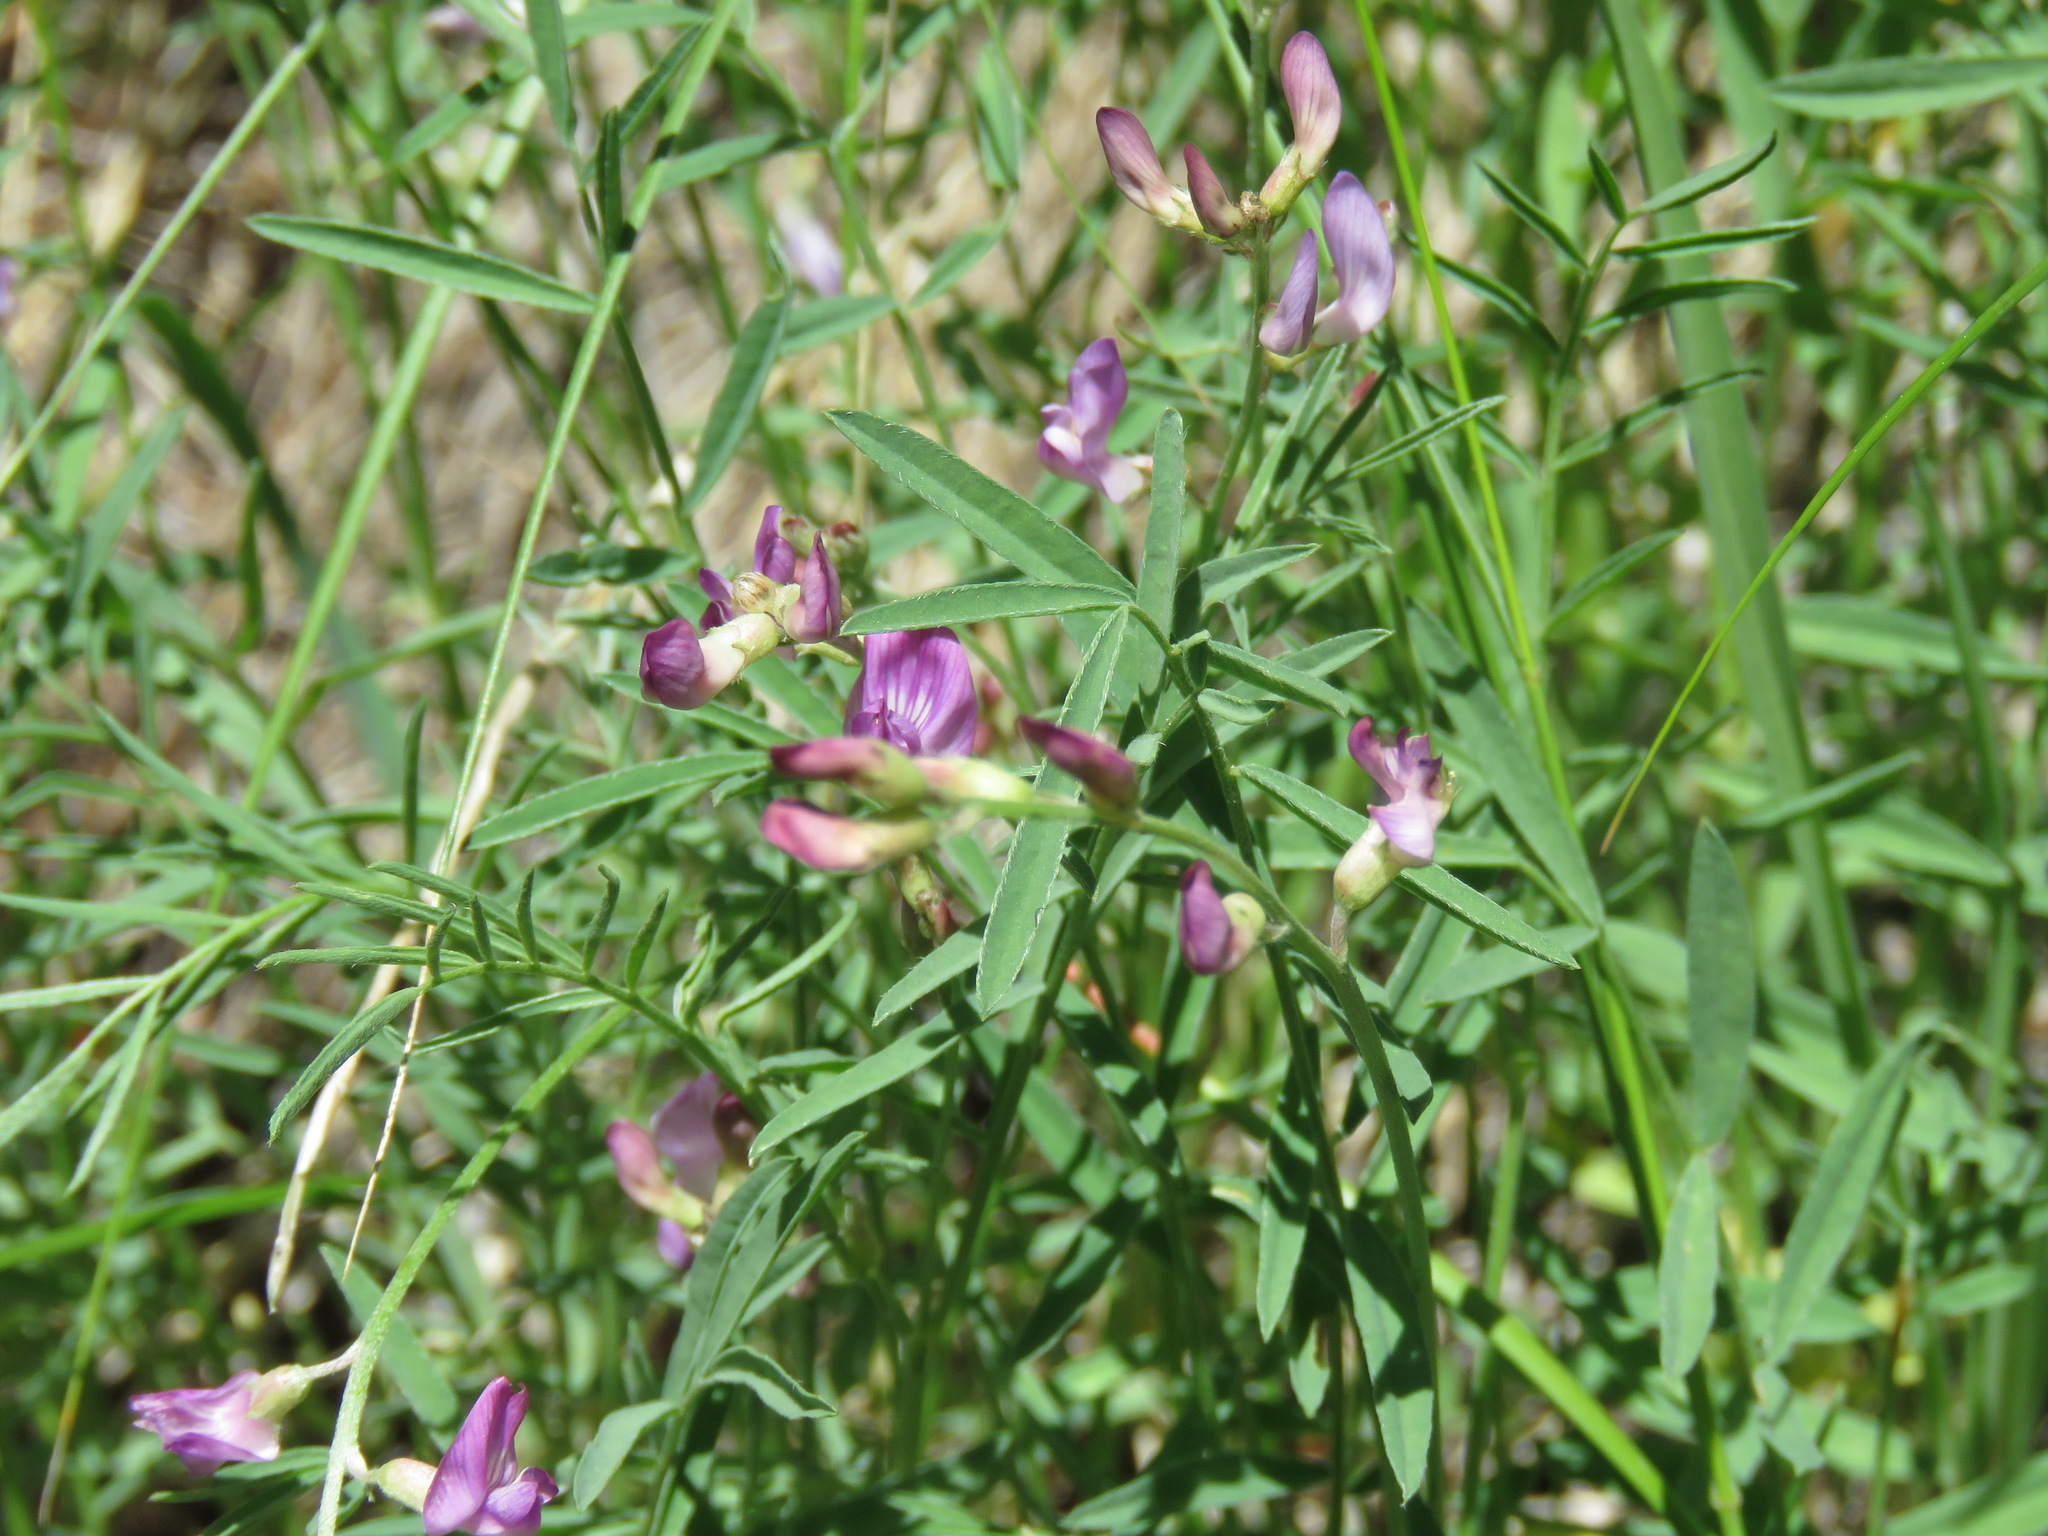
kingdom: Plantae
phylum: Tracheophyta
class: Magnoliopsida
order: Fabales
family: Fabaceae
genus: Astragalus
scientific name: Astragalus miser
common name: Timber milkvetch
